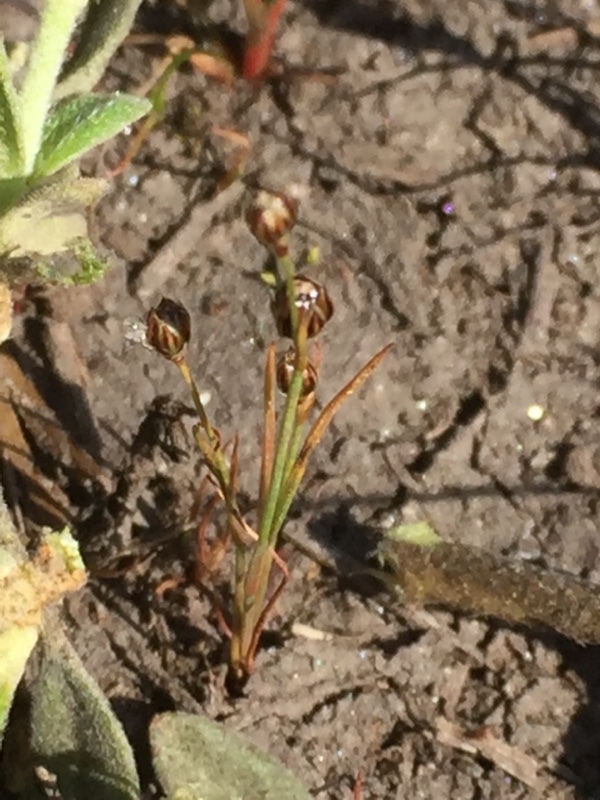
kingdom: Plantae
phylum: Tracheophyta
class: Liliopsida
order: Poales
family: Juncaceae
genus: Juncus
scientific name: Juncus tenageia
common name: Sand rush
